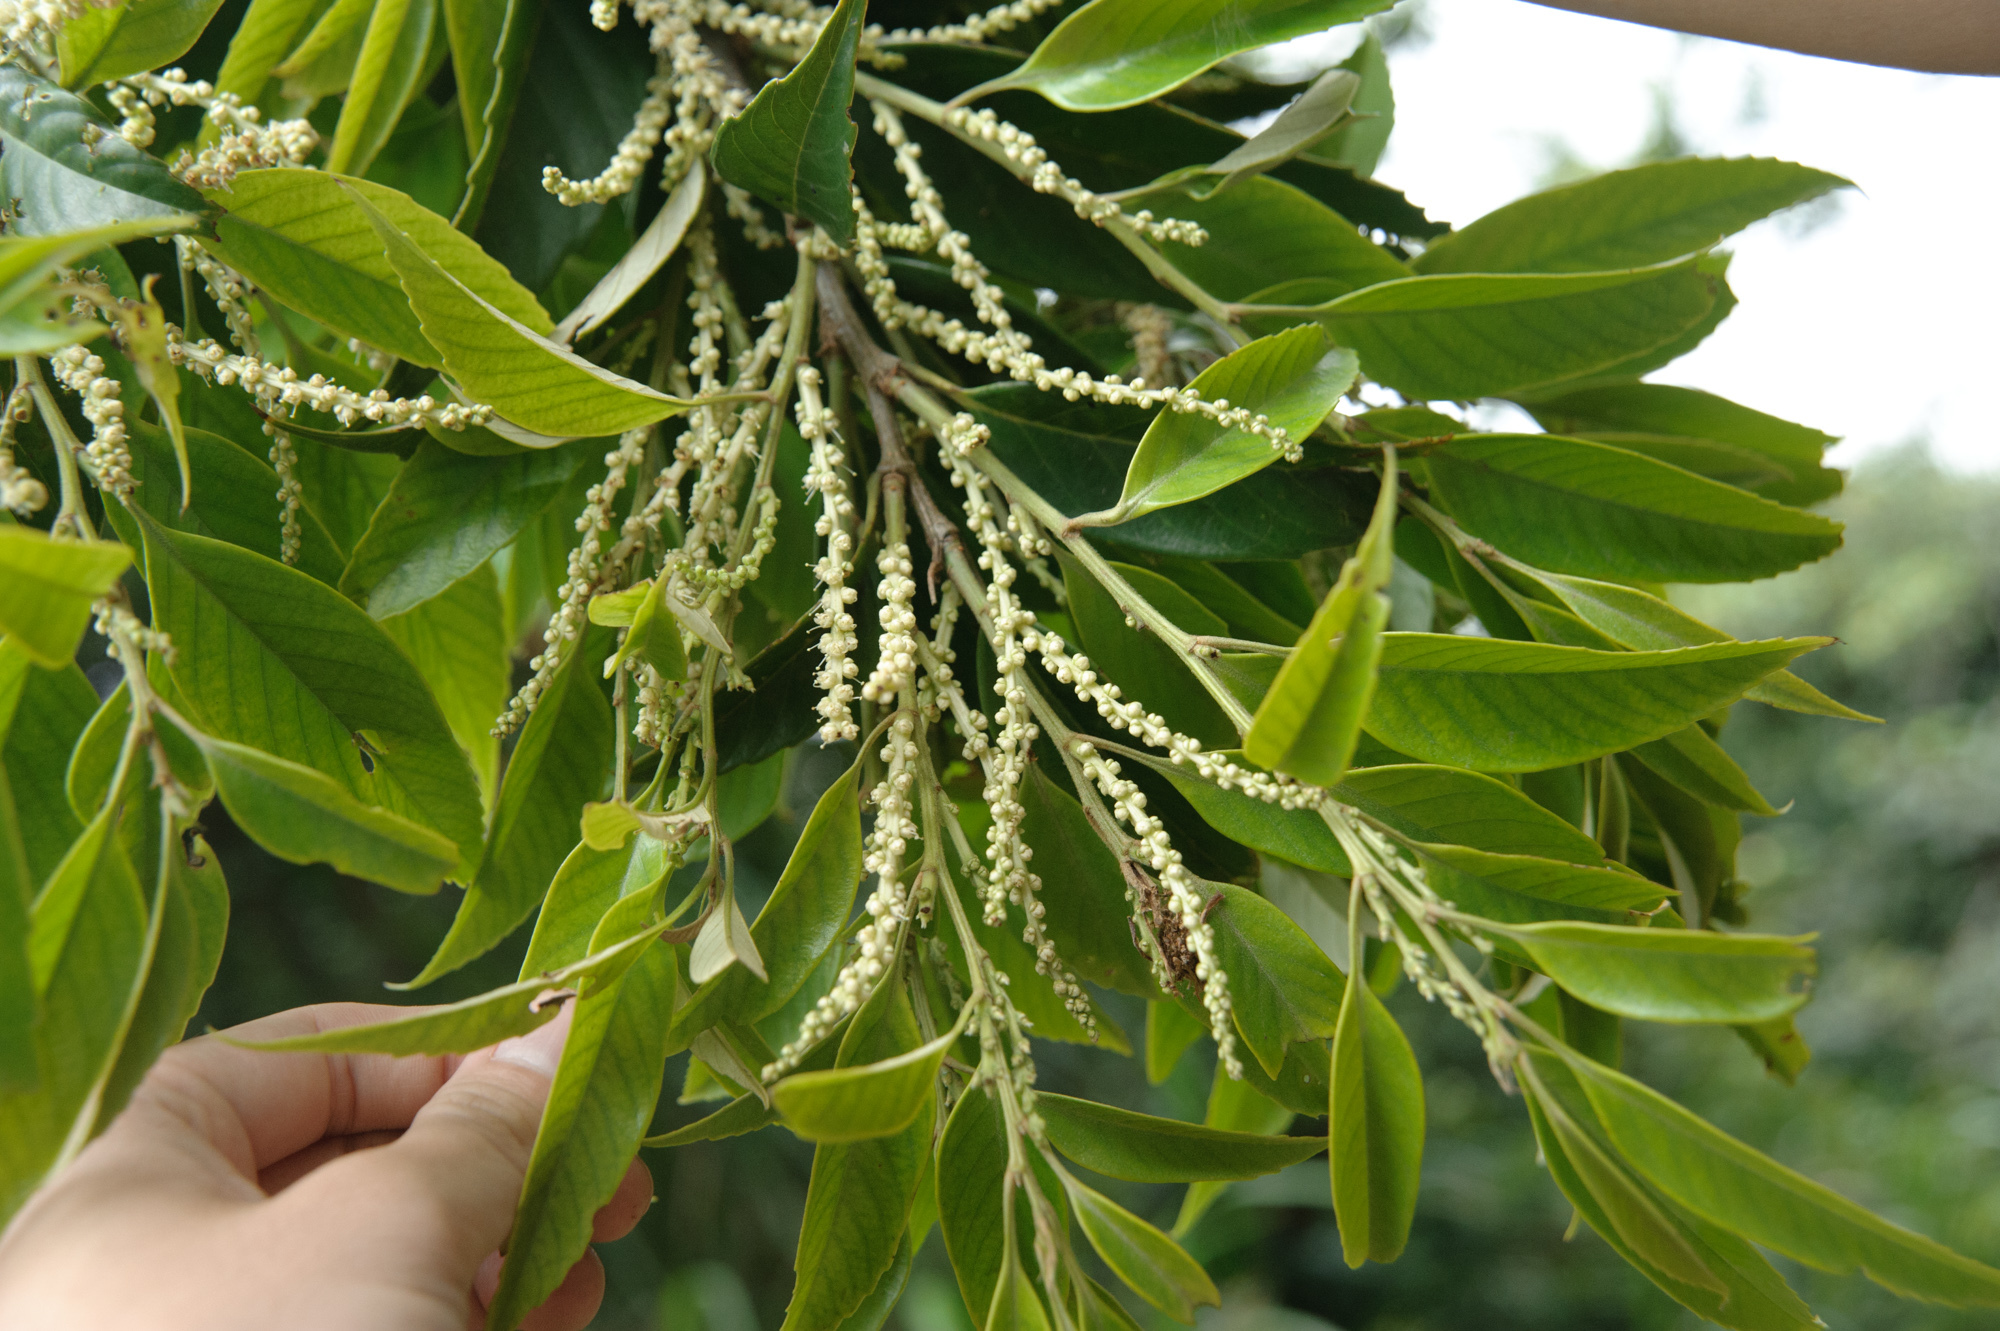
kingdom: Plantae
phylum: Tracheophyta
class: Magnoliopsida
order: Fagales
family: Fagaceae
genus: Castanopsis
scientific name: Castanopsis faberi
